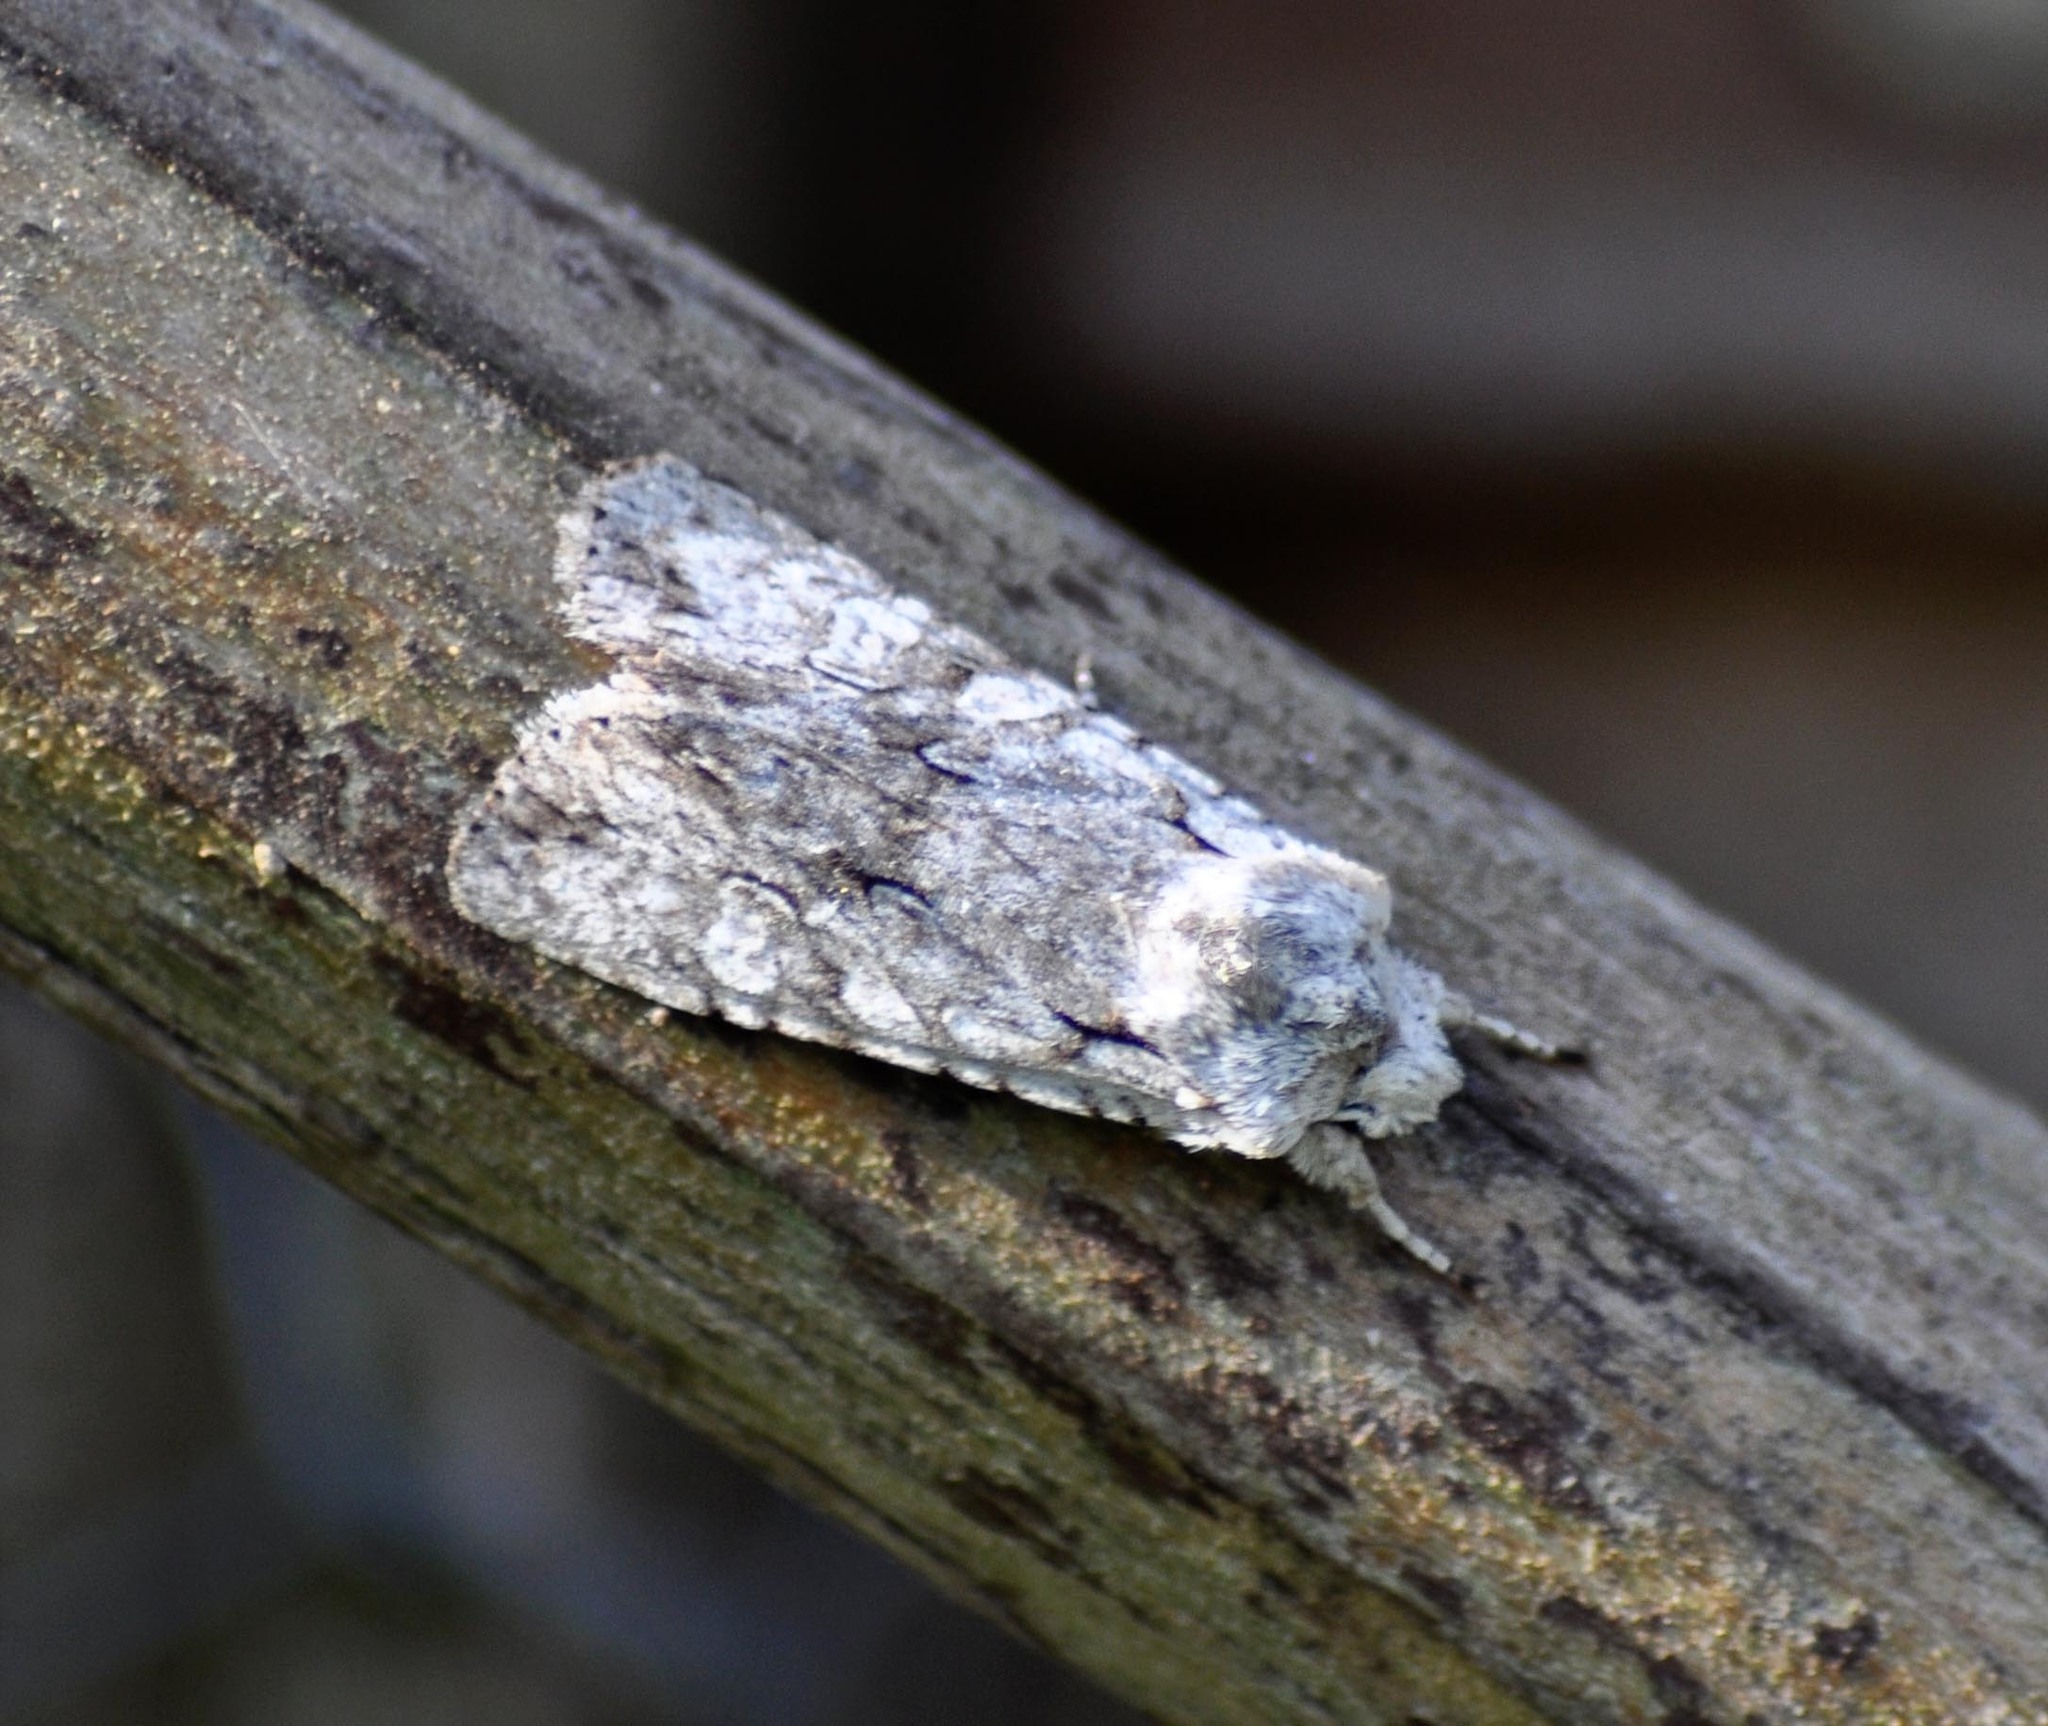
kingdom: Animalia
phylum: Arthropoda
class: Insecta
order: Lepidoptera
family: Noctuidae
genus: Lithophane
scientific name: Lithophane ornitopus
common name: Grey shoulder-knot
